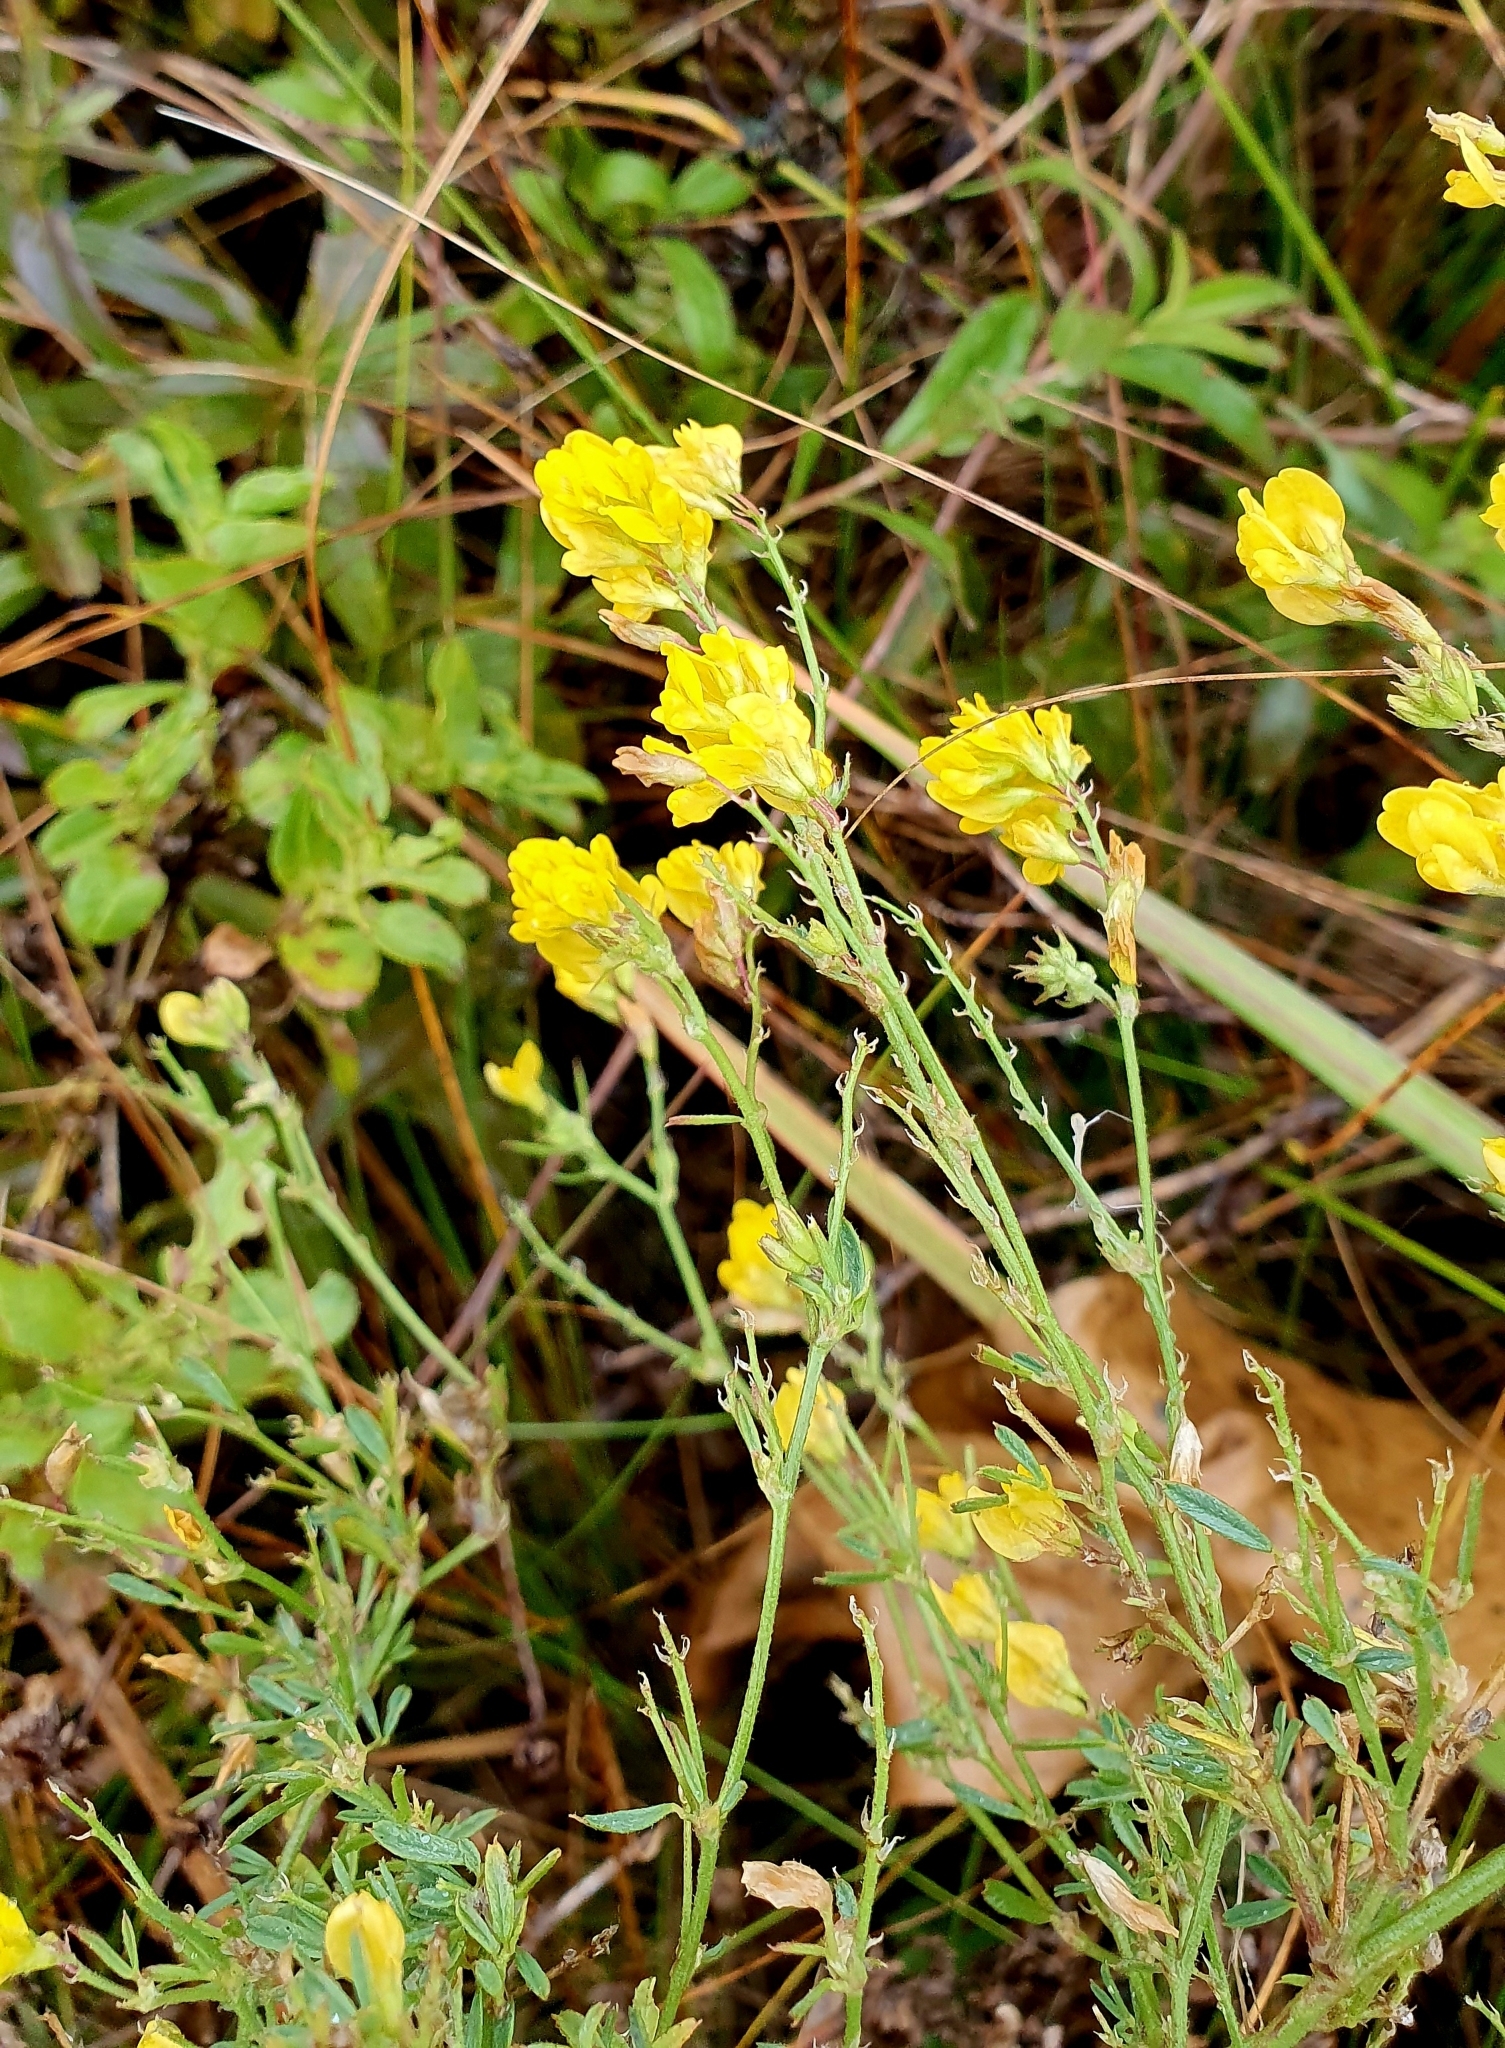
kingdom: Plantae
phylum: Tracheophyta
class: Magnoliopsida
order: Fabales
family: Fabaceae
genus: Medicago
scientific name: Medicago falcata
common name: Sickle medick
